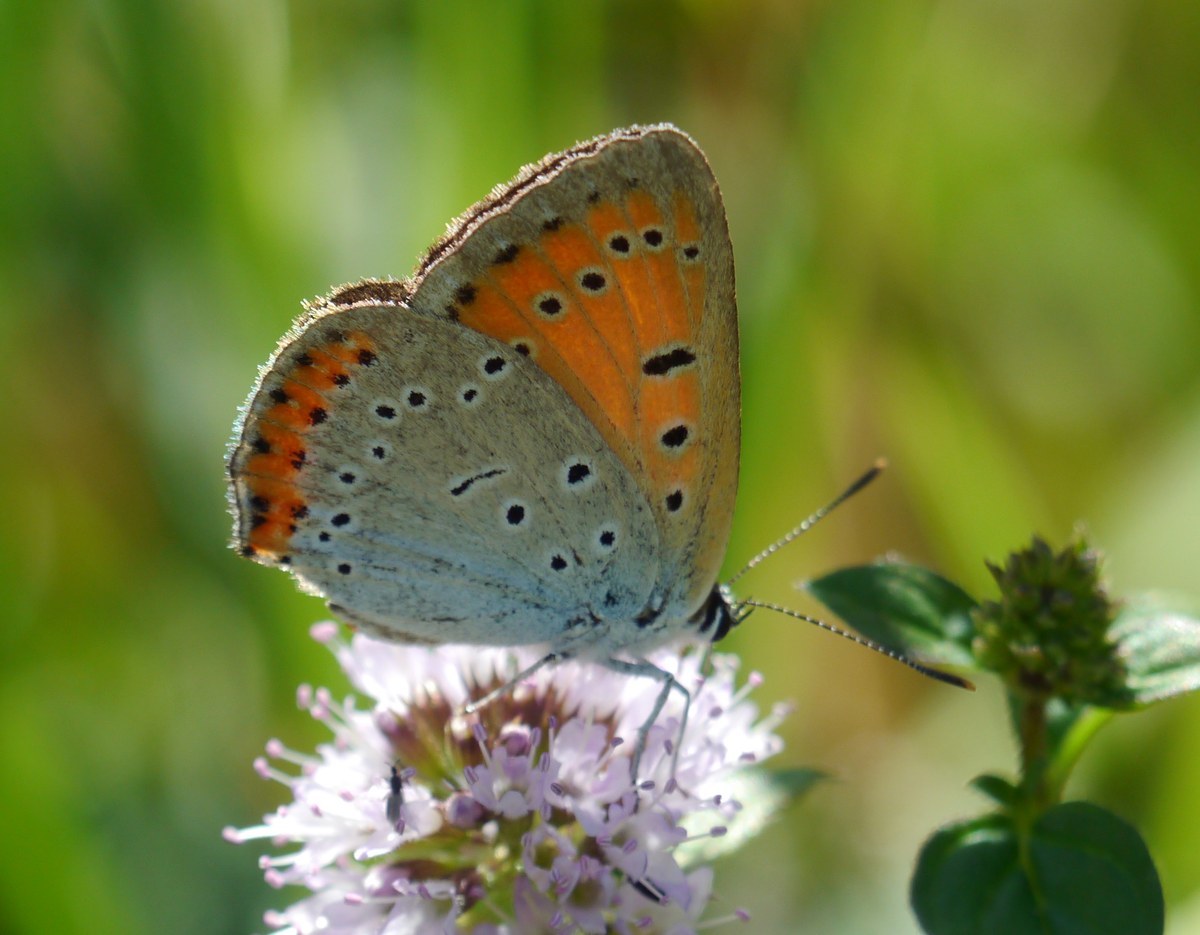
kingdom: Animalia
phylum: Arthropoda
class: Insecta
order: Lepidoptera
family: Lycaenidae
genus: Lycaena
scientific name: Lycaena dispar
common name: Large copper
